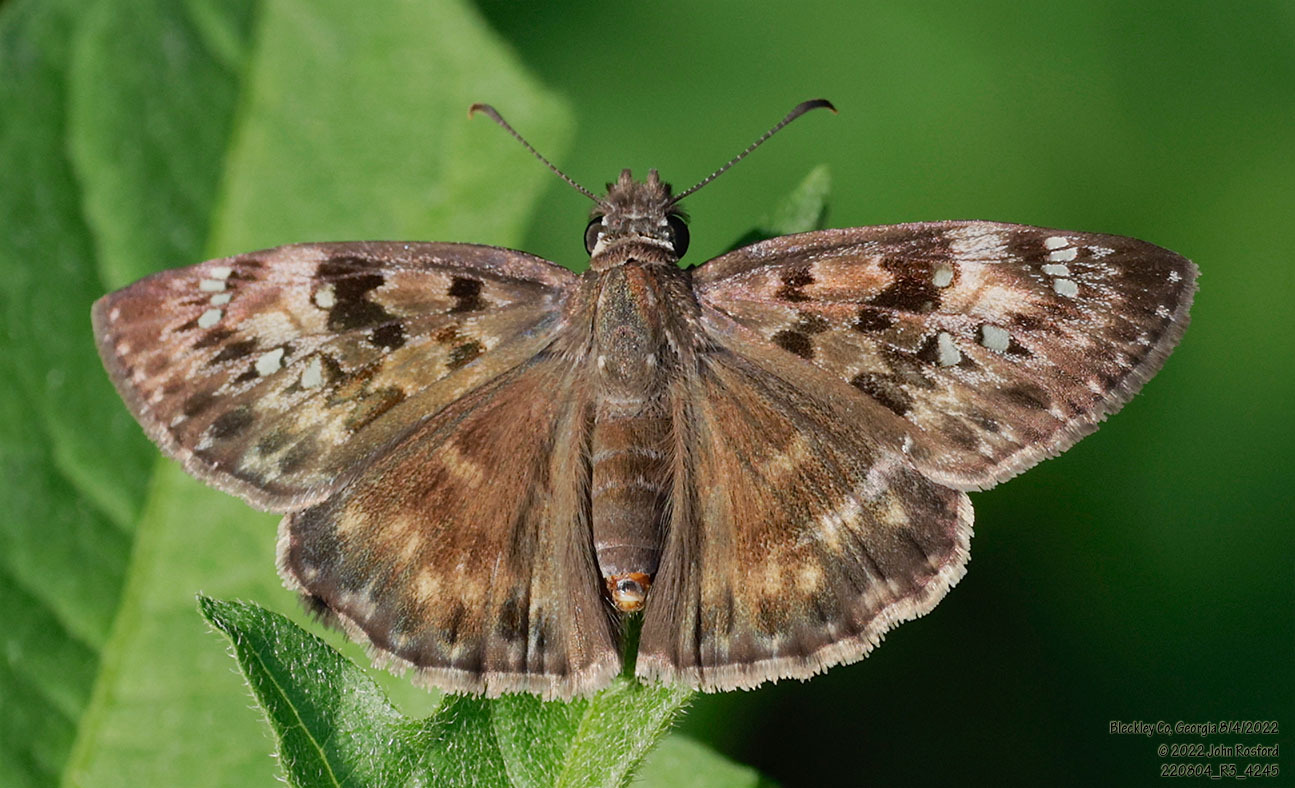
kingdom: Animalia
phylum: Arthropoda
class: Insecta
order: Lepidoptera
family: Hesperiidae
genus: Erynnis
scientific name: Erynnis horatius
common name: Horace's duskywing
